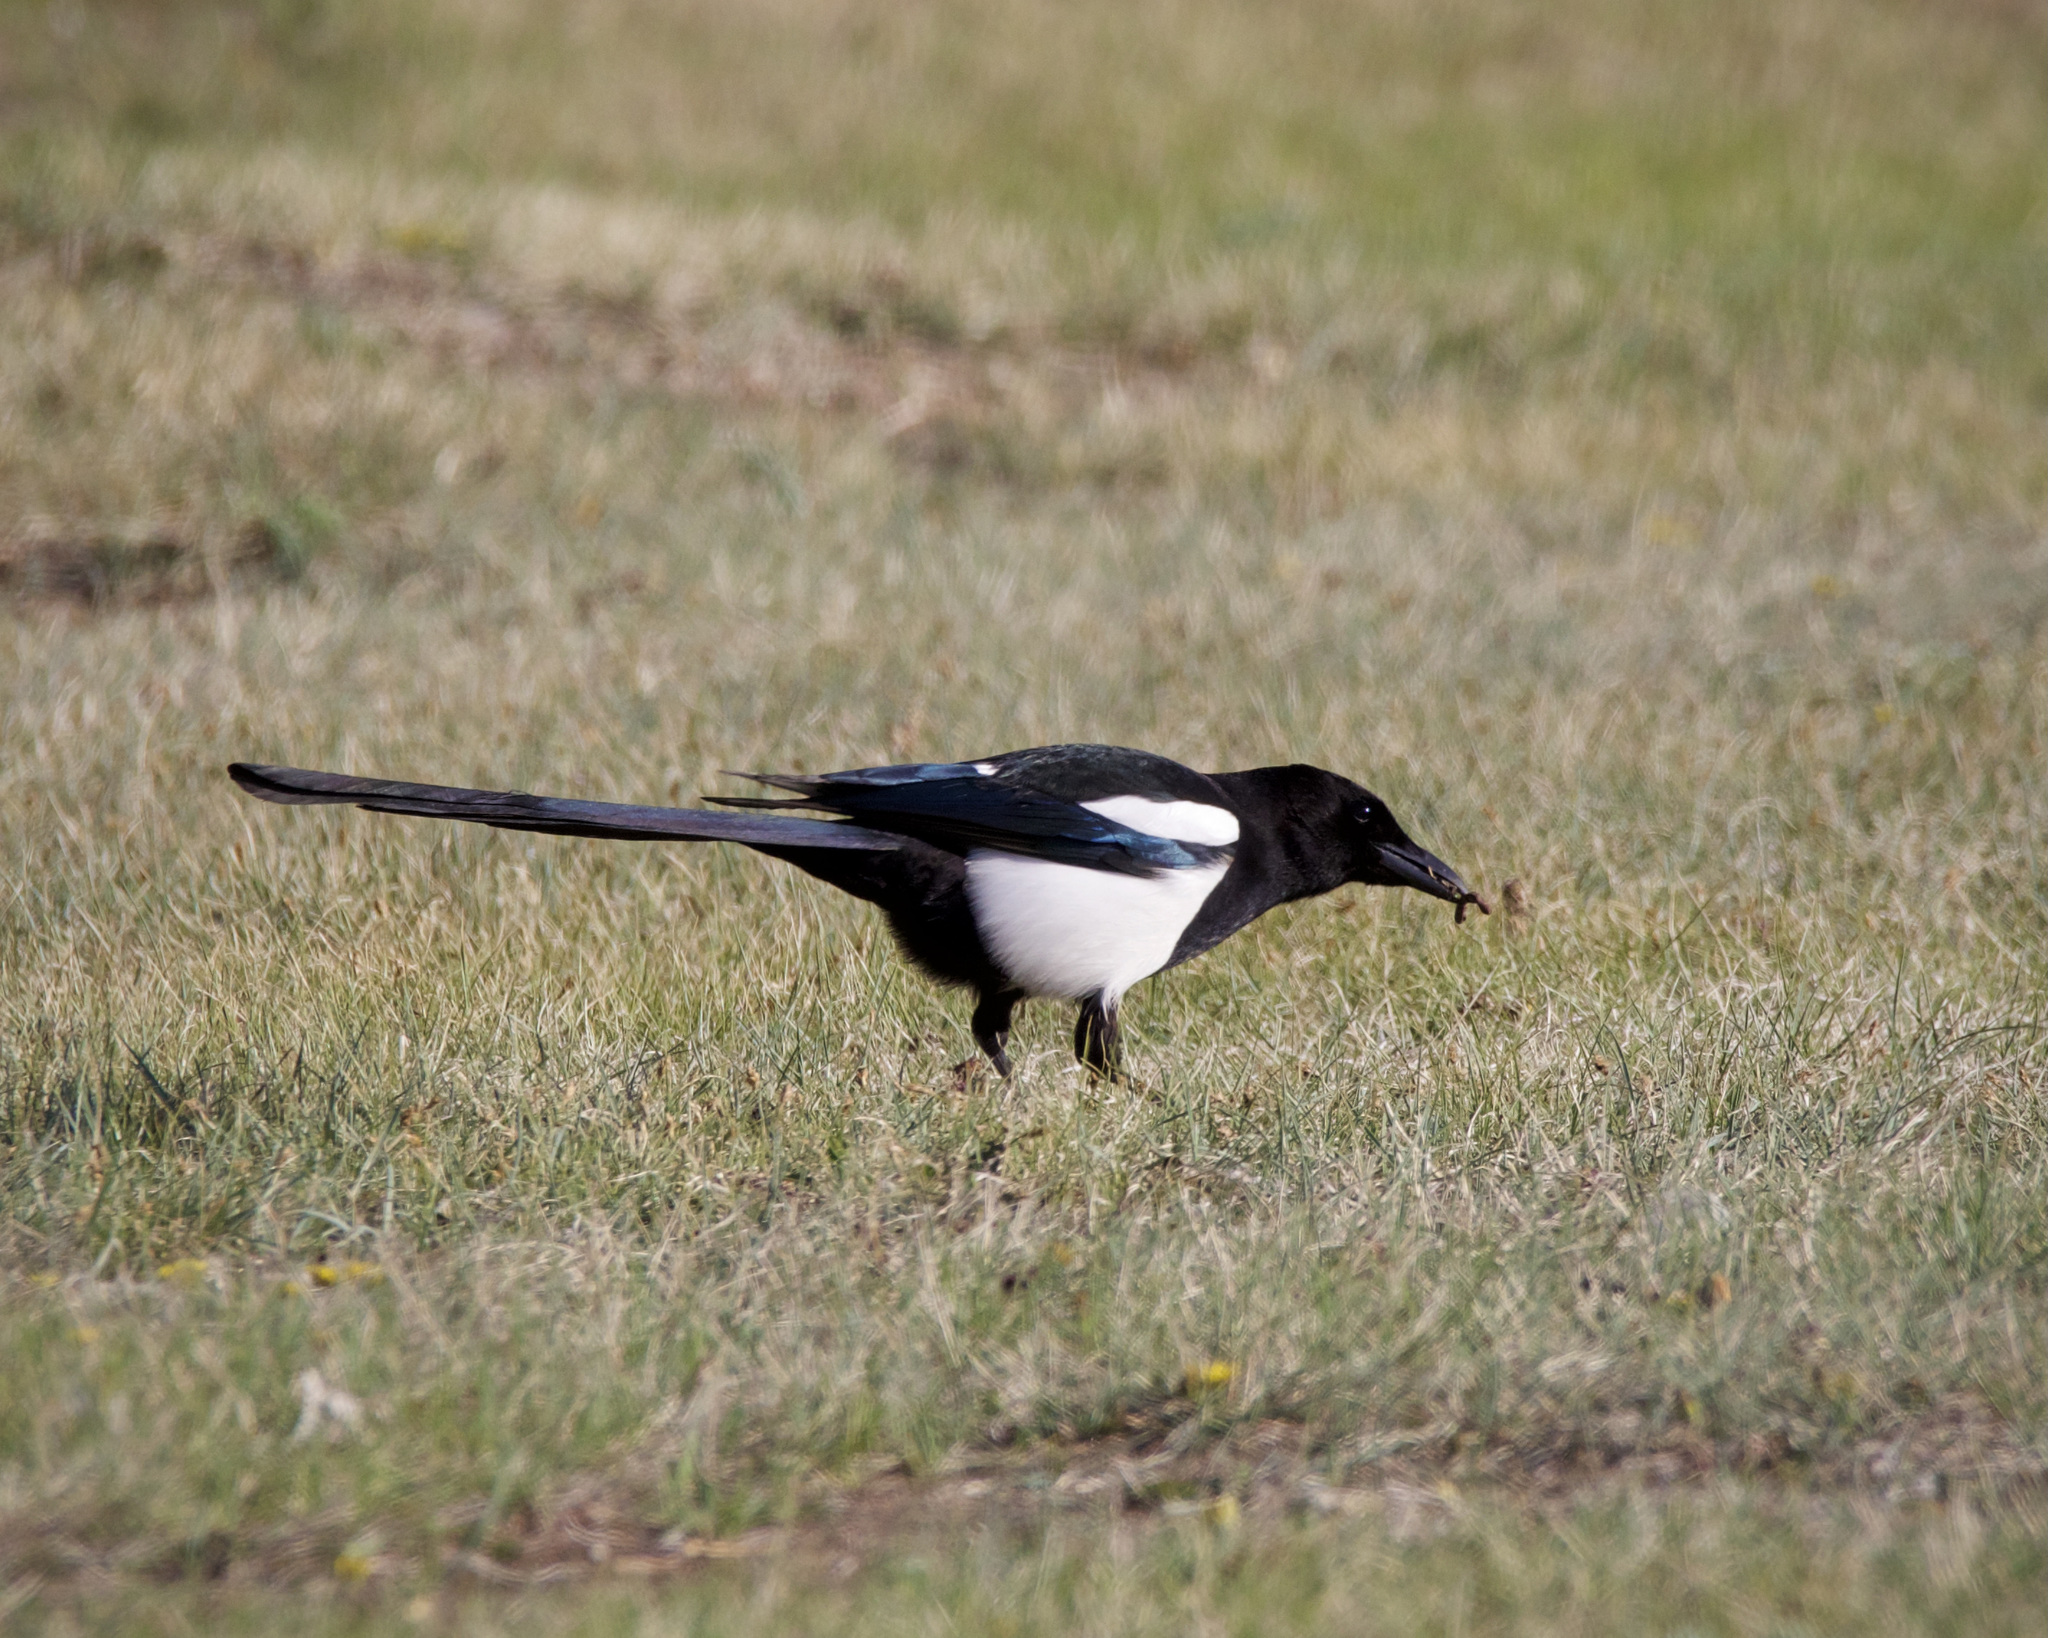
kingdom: Animalia
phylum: Chordata
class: Aves
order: Passeriformes
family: Corvidae
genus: Pica
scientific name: Pica hudsonia
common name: Black-billed magpie
